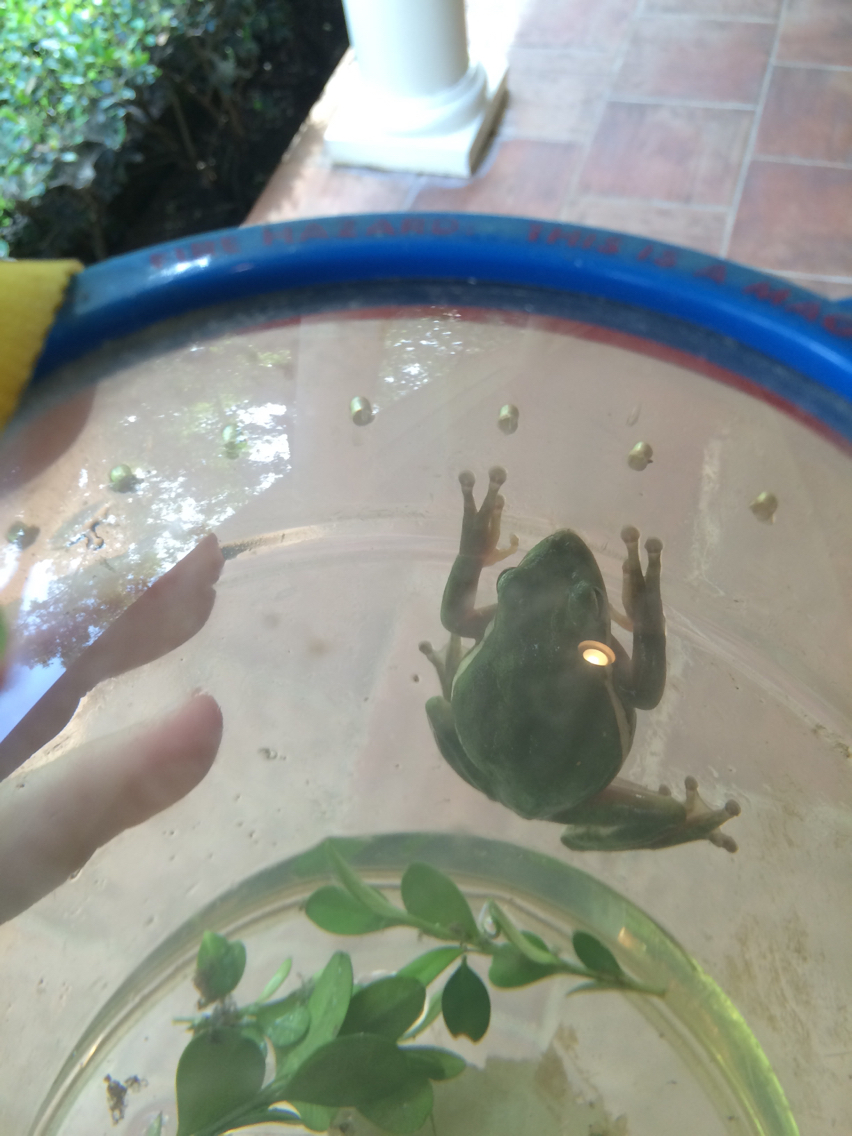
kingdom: Animalia
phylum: Chordata
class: Amphibia
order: Anura
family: Hylidae
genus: Dryophytes
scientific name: Dryophytes cinereus
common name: Green treefrog
